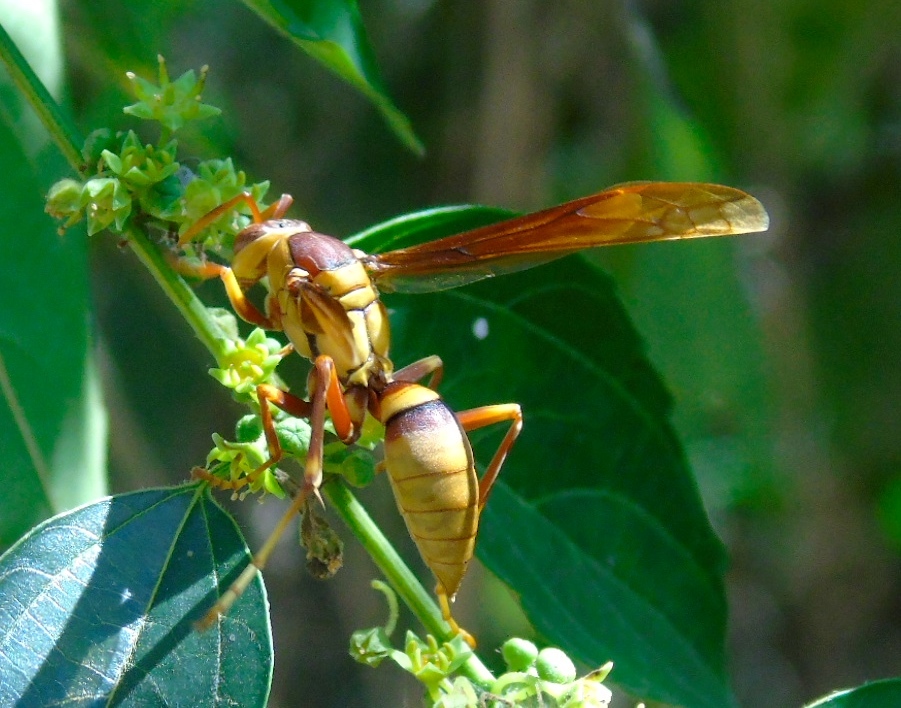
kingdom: Animalia
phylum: Arthropoda
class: Insecta
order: Hymenoptera
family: Eumenidae
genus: Polistes
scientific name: Polistes carnifex
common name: Paper wasp
